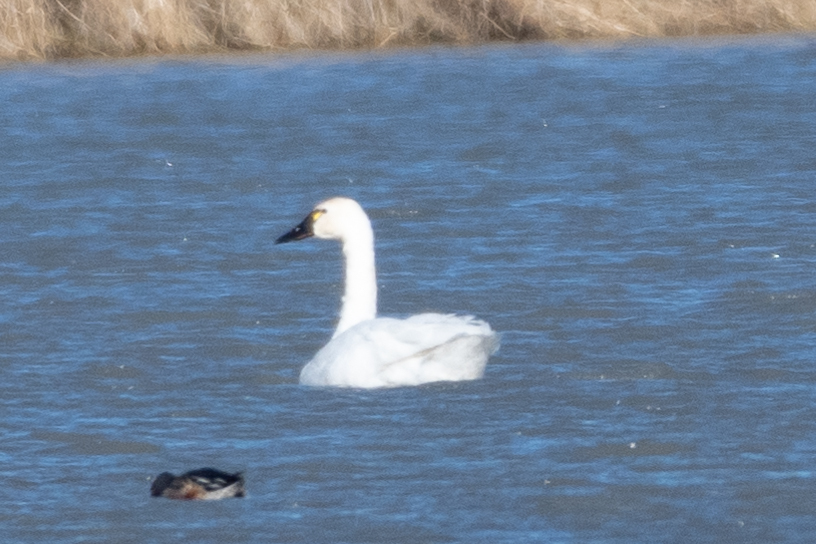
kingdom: Animalia
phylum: Chordata
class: Aves
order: Anseriformes
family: Anatidae
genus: Cygnus
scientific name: Cygnus columbianus
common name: Tundra swan
